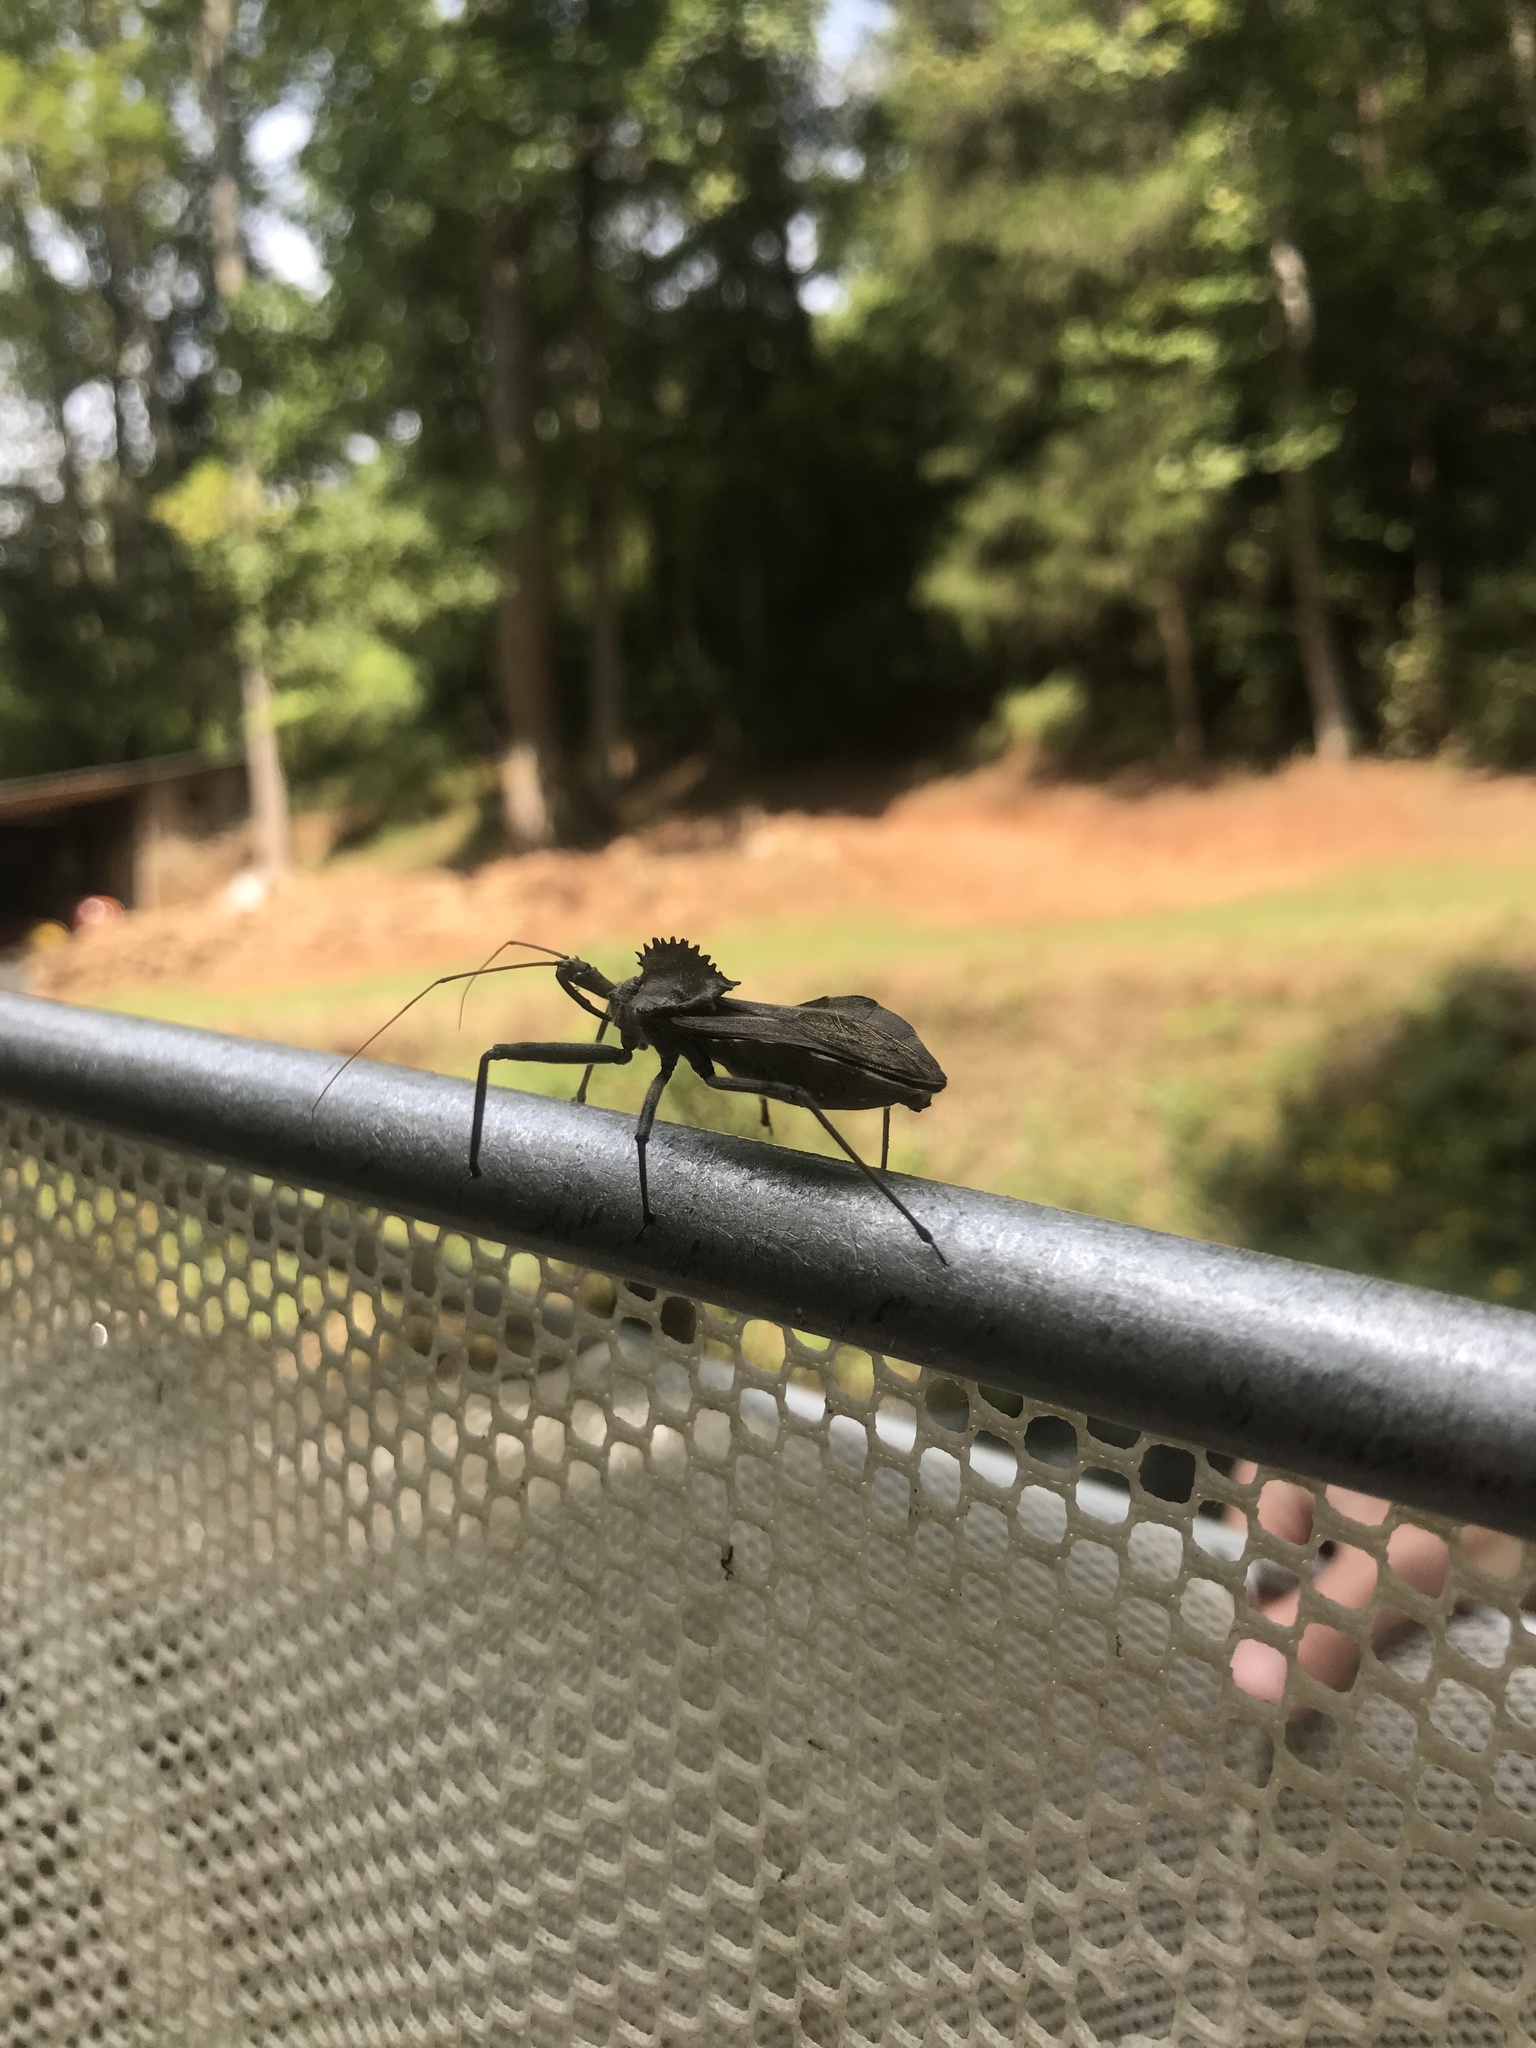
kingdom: Animalia
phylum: Arthropoda
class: Insecta
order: Hemiptera
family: Reduviidae
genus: Arilus
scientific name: Arilus cristatus
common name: North american wheel bug
